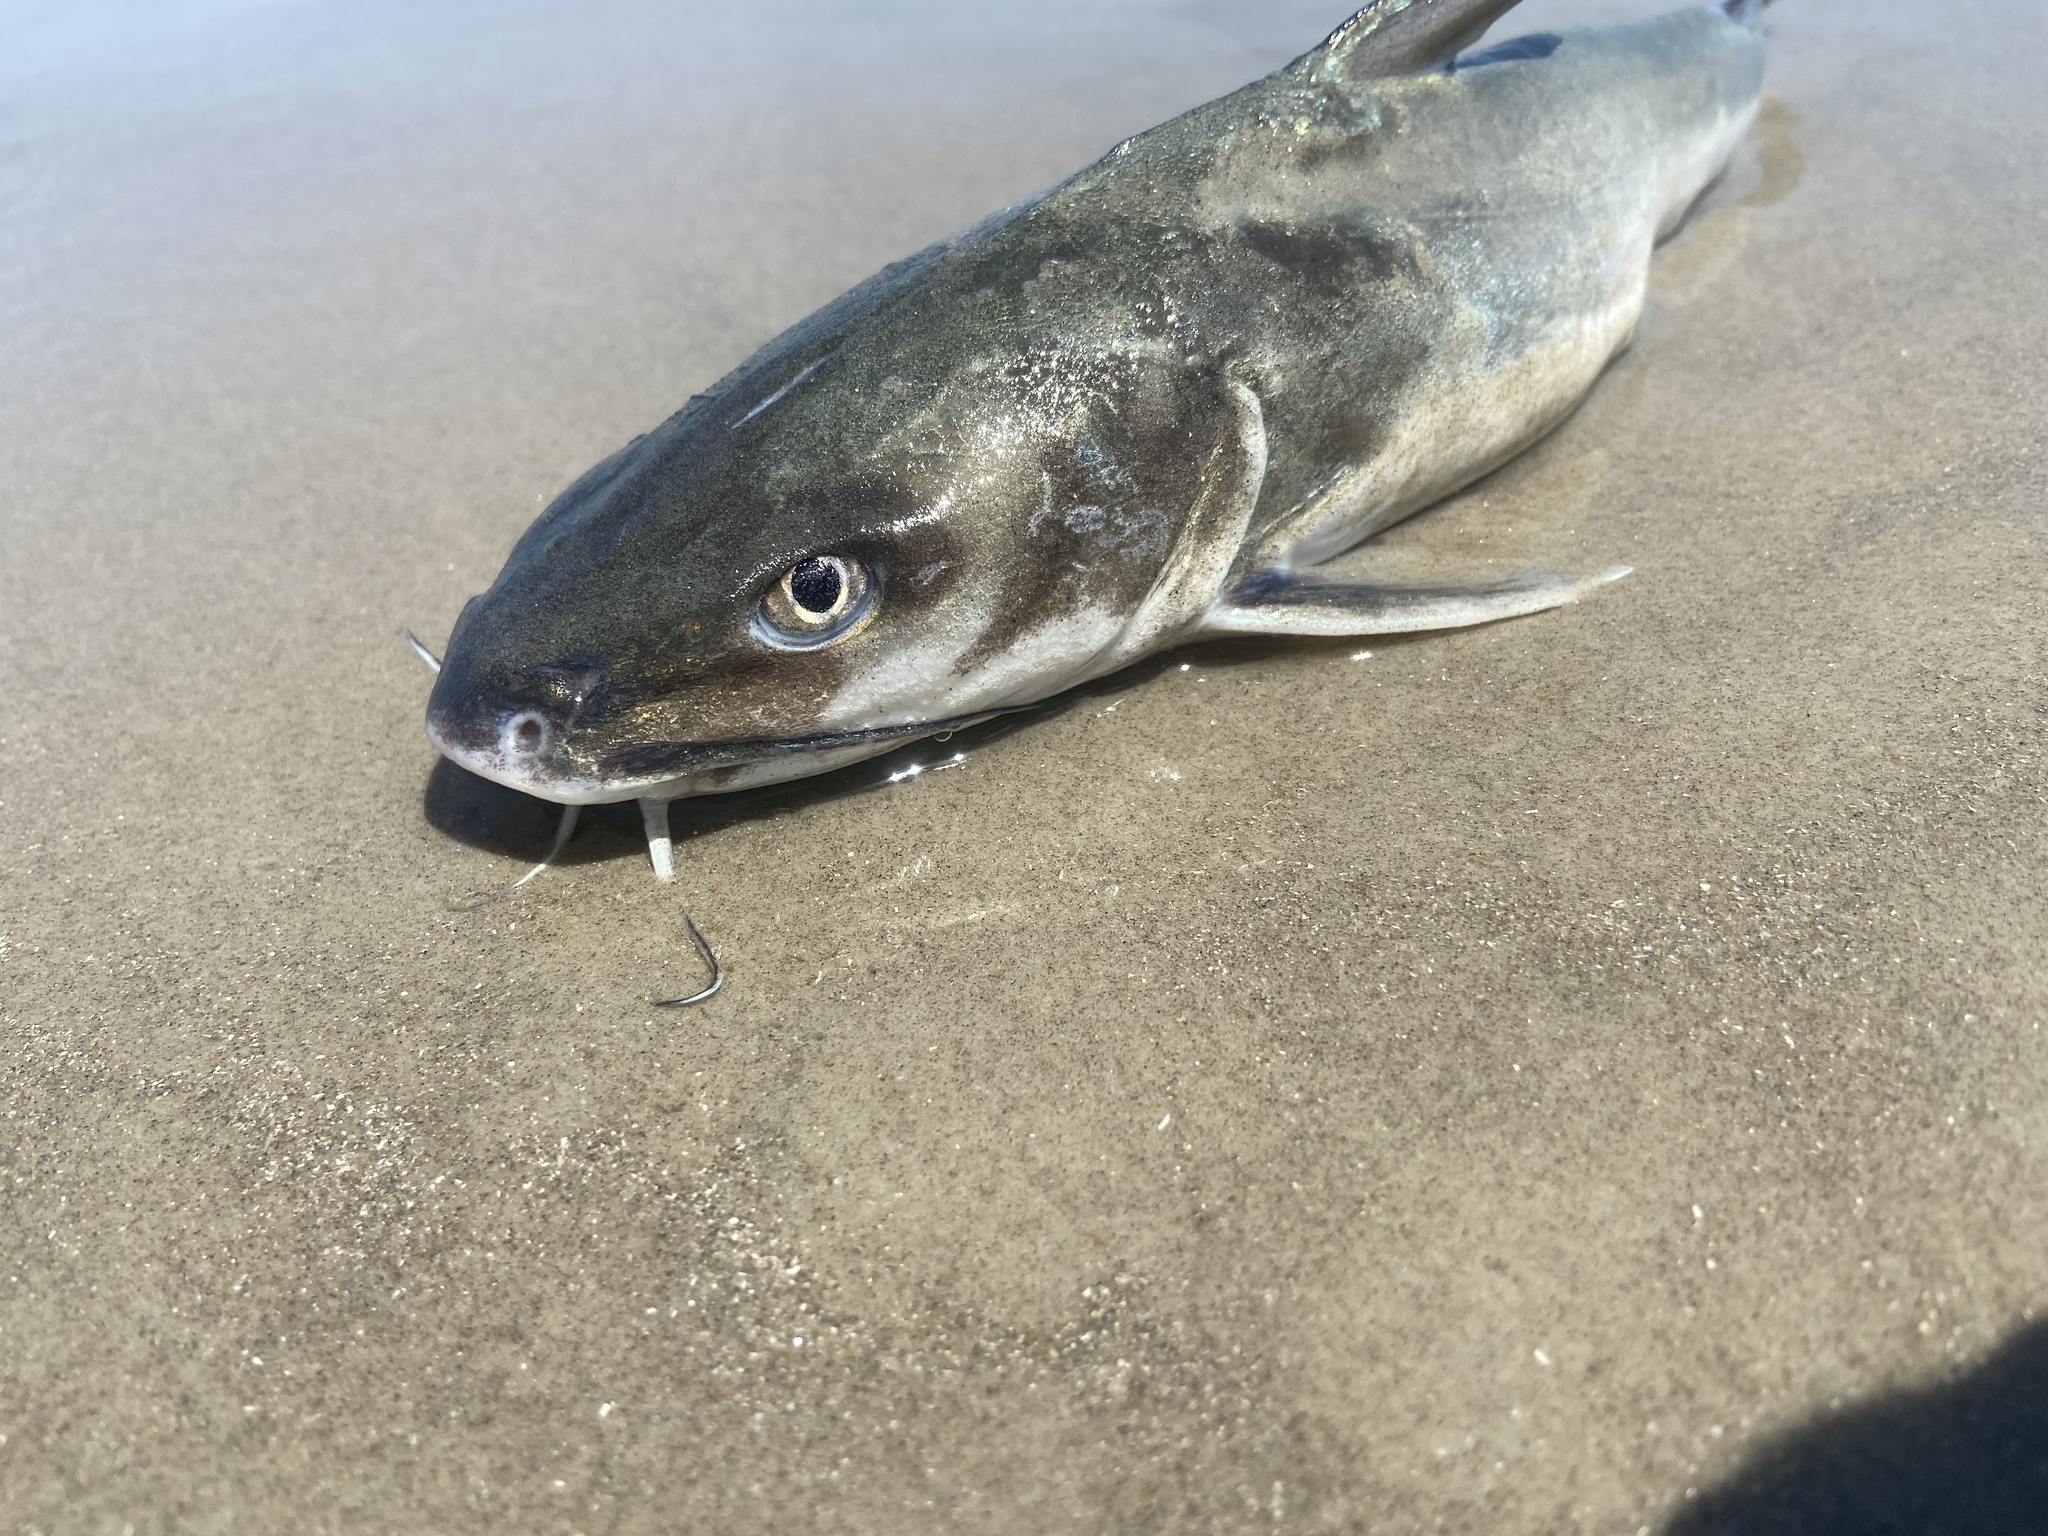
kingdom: Animalia
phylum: Chordata
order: Siluriformes
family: Ariidae
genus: Ariopsis
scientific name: Ariopsis felis
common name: Hardhead catfish
